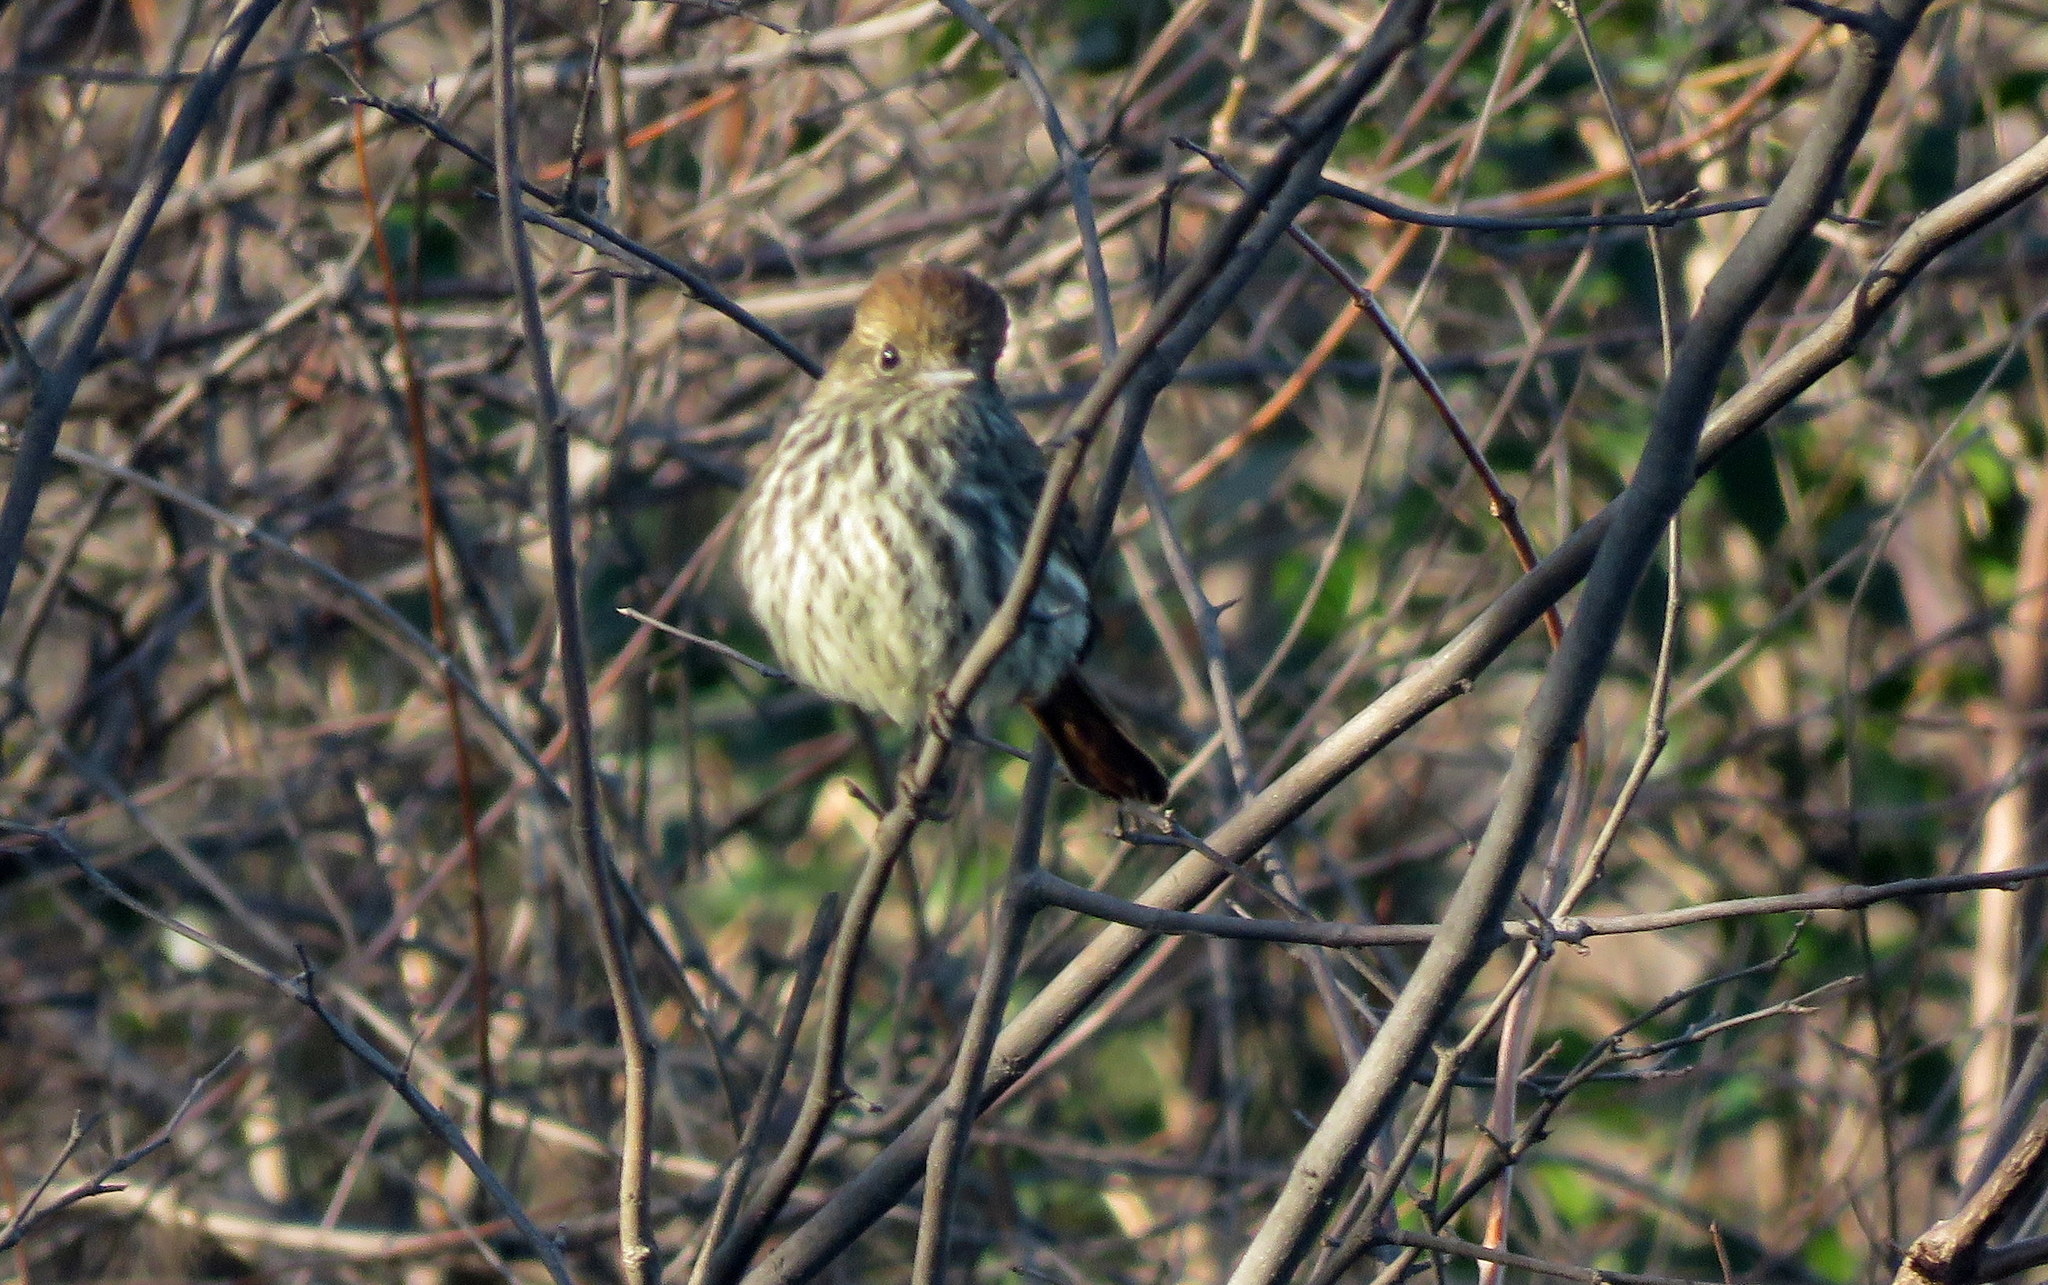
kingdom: Animalia
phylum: Chordata
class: Aves
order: Passeriformes
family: Tyrannidae
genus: Knipolegus
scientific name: Knipolegus cyanirostris
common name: Blue-billed black tyrant
